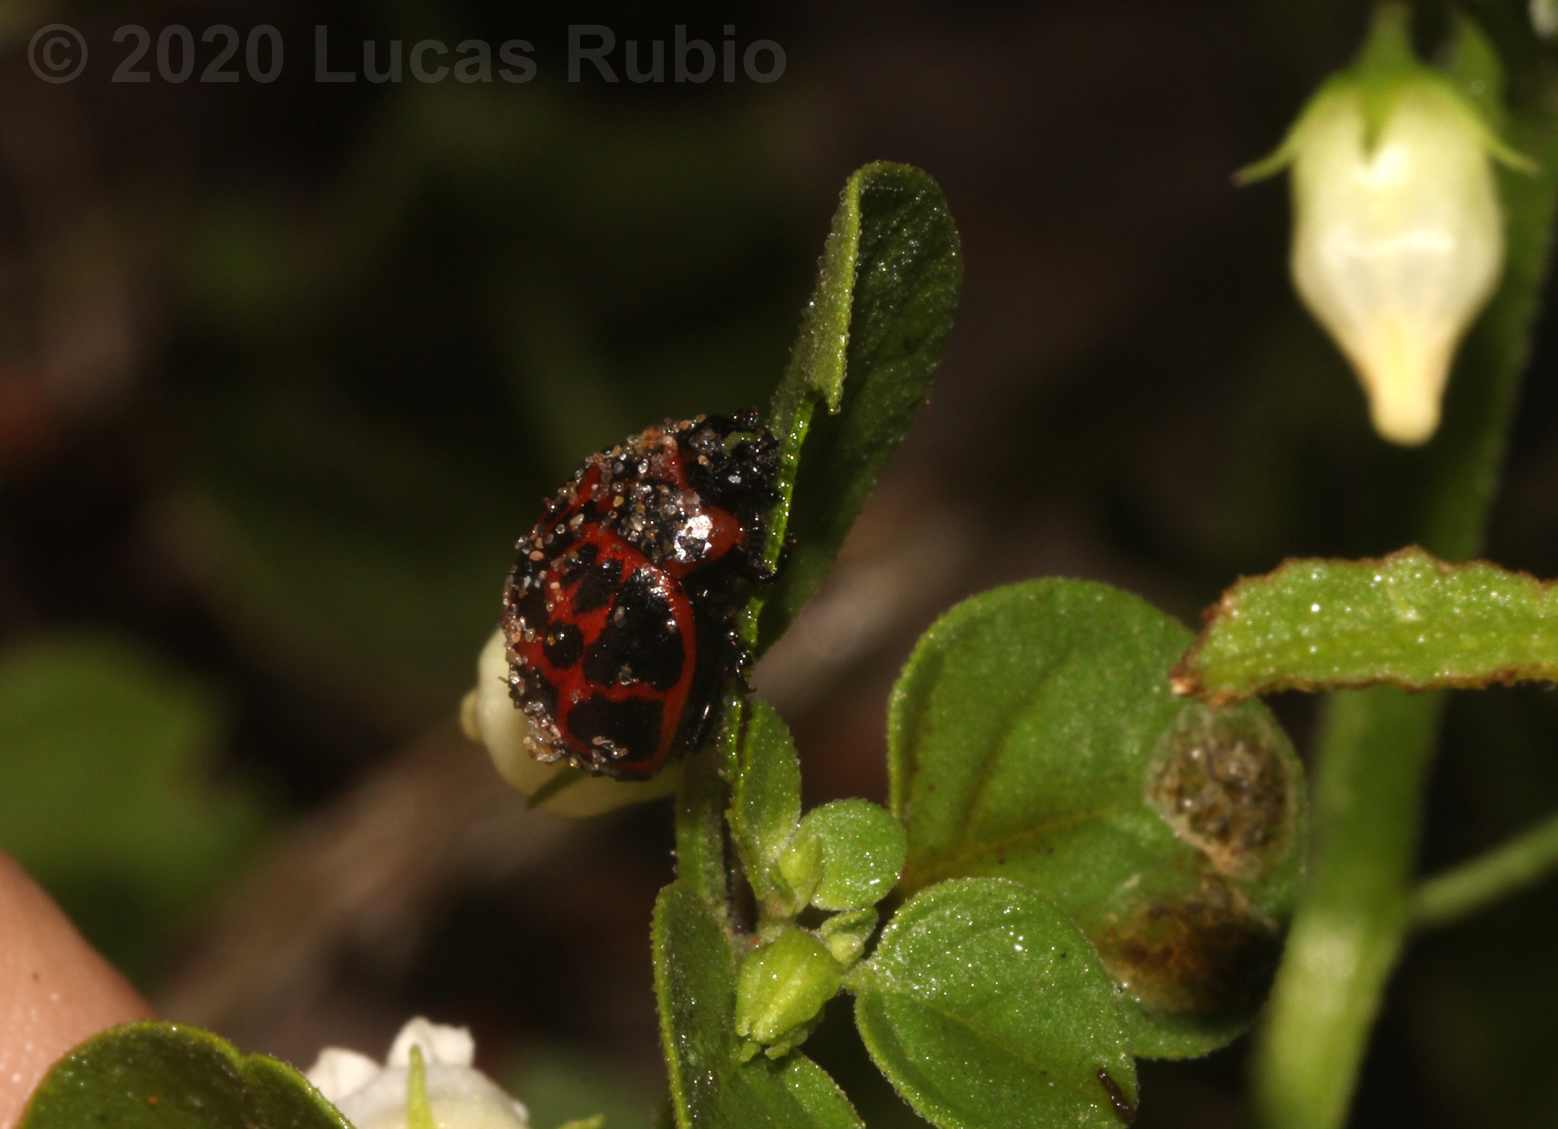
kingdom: Animalia
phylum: Arthropoda
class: Insecta
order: Coleoptera
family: Chrysomelidae
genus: Platyphora
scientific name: Platyphora
